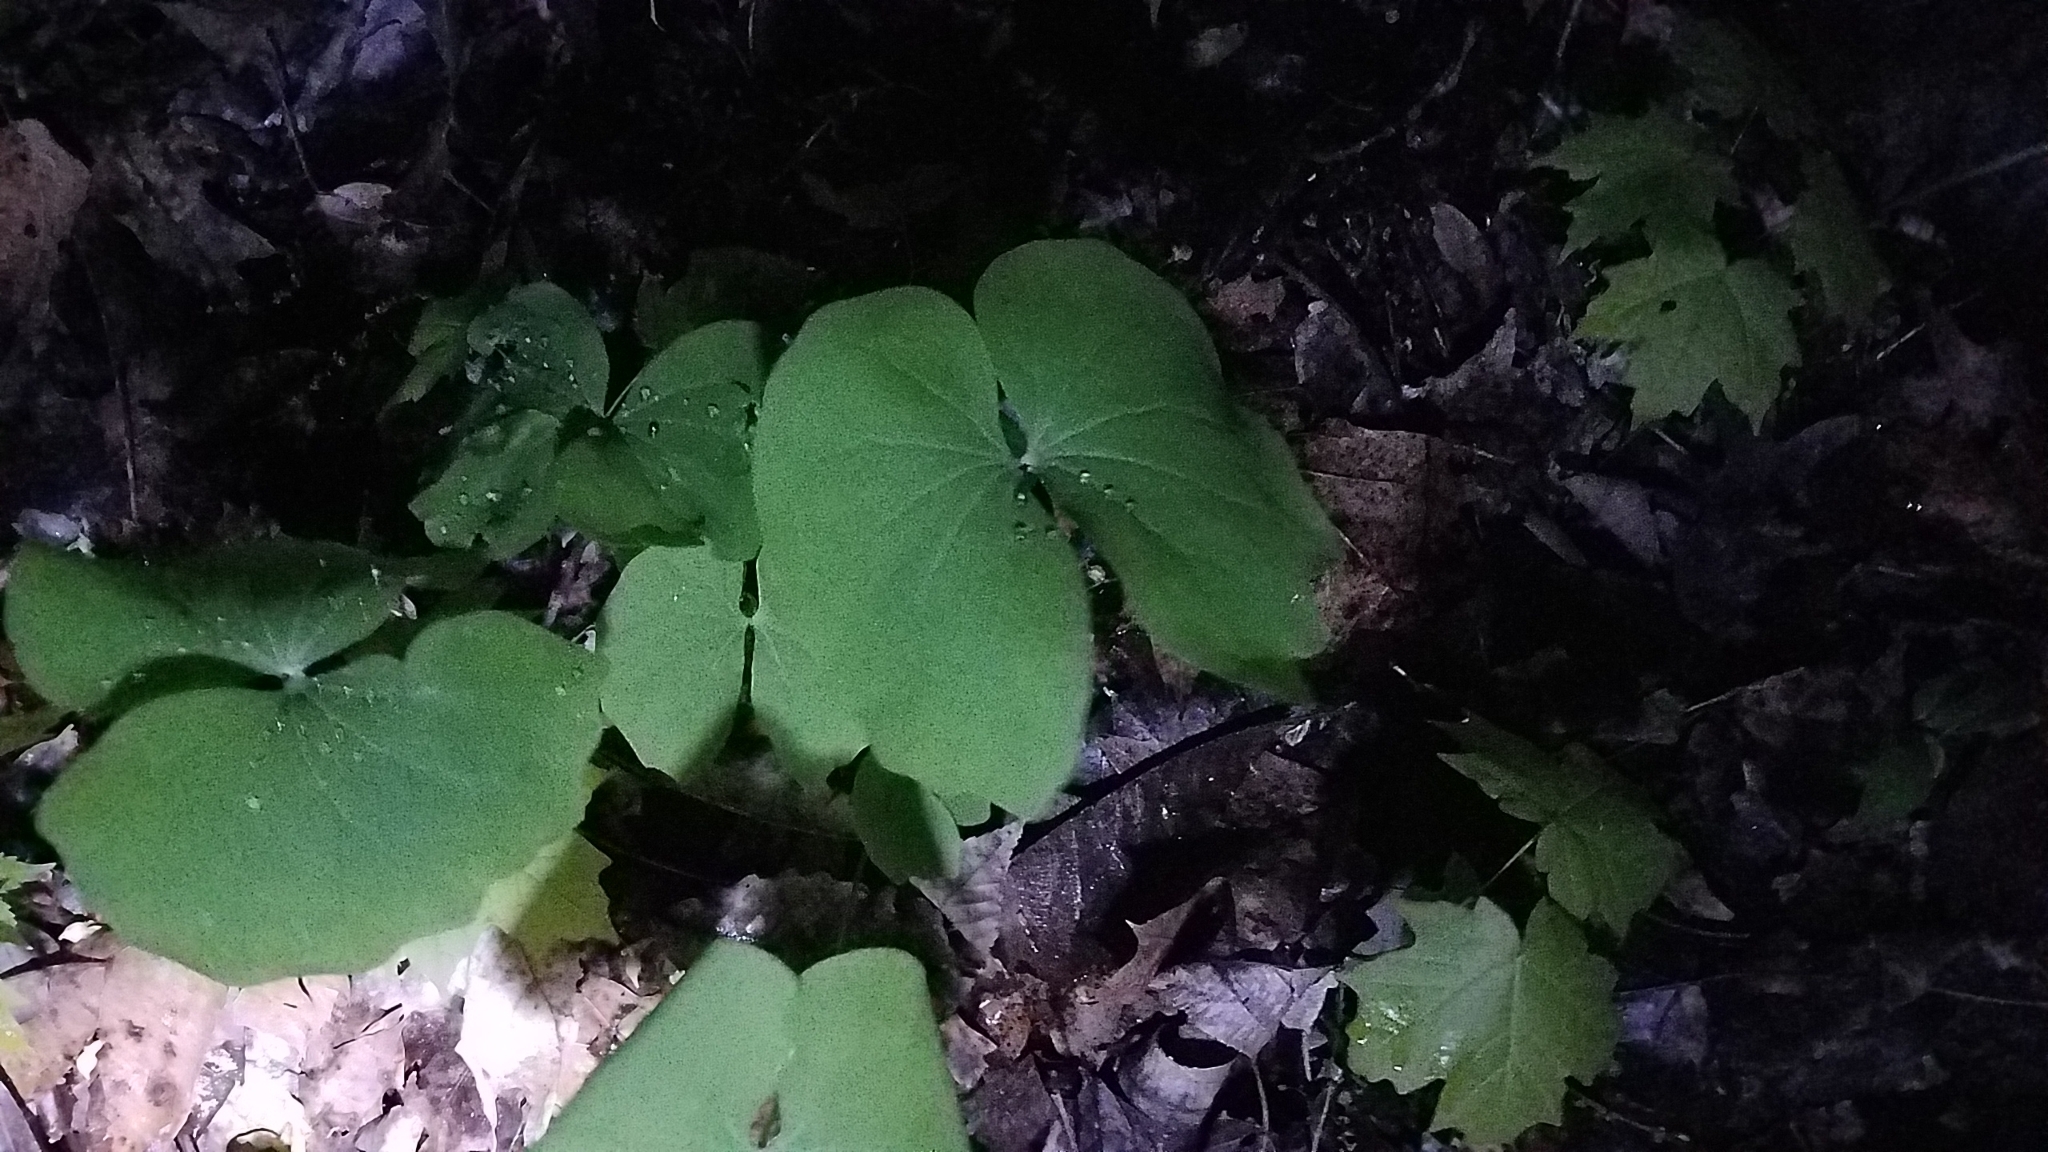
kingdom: Plantae
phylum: Tracheophyta
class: Magnoliopsida
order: Ranunculales
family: Berberidaceae
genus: Jeffersonia
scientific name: Jeffersonia diphylla
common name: Rheumatism-root
